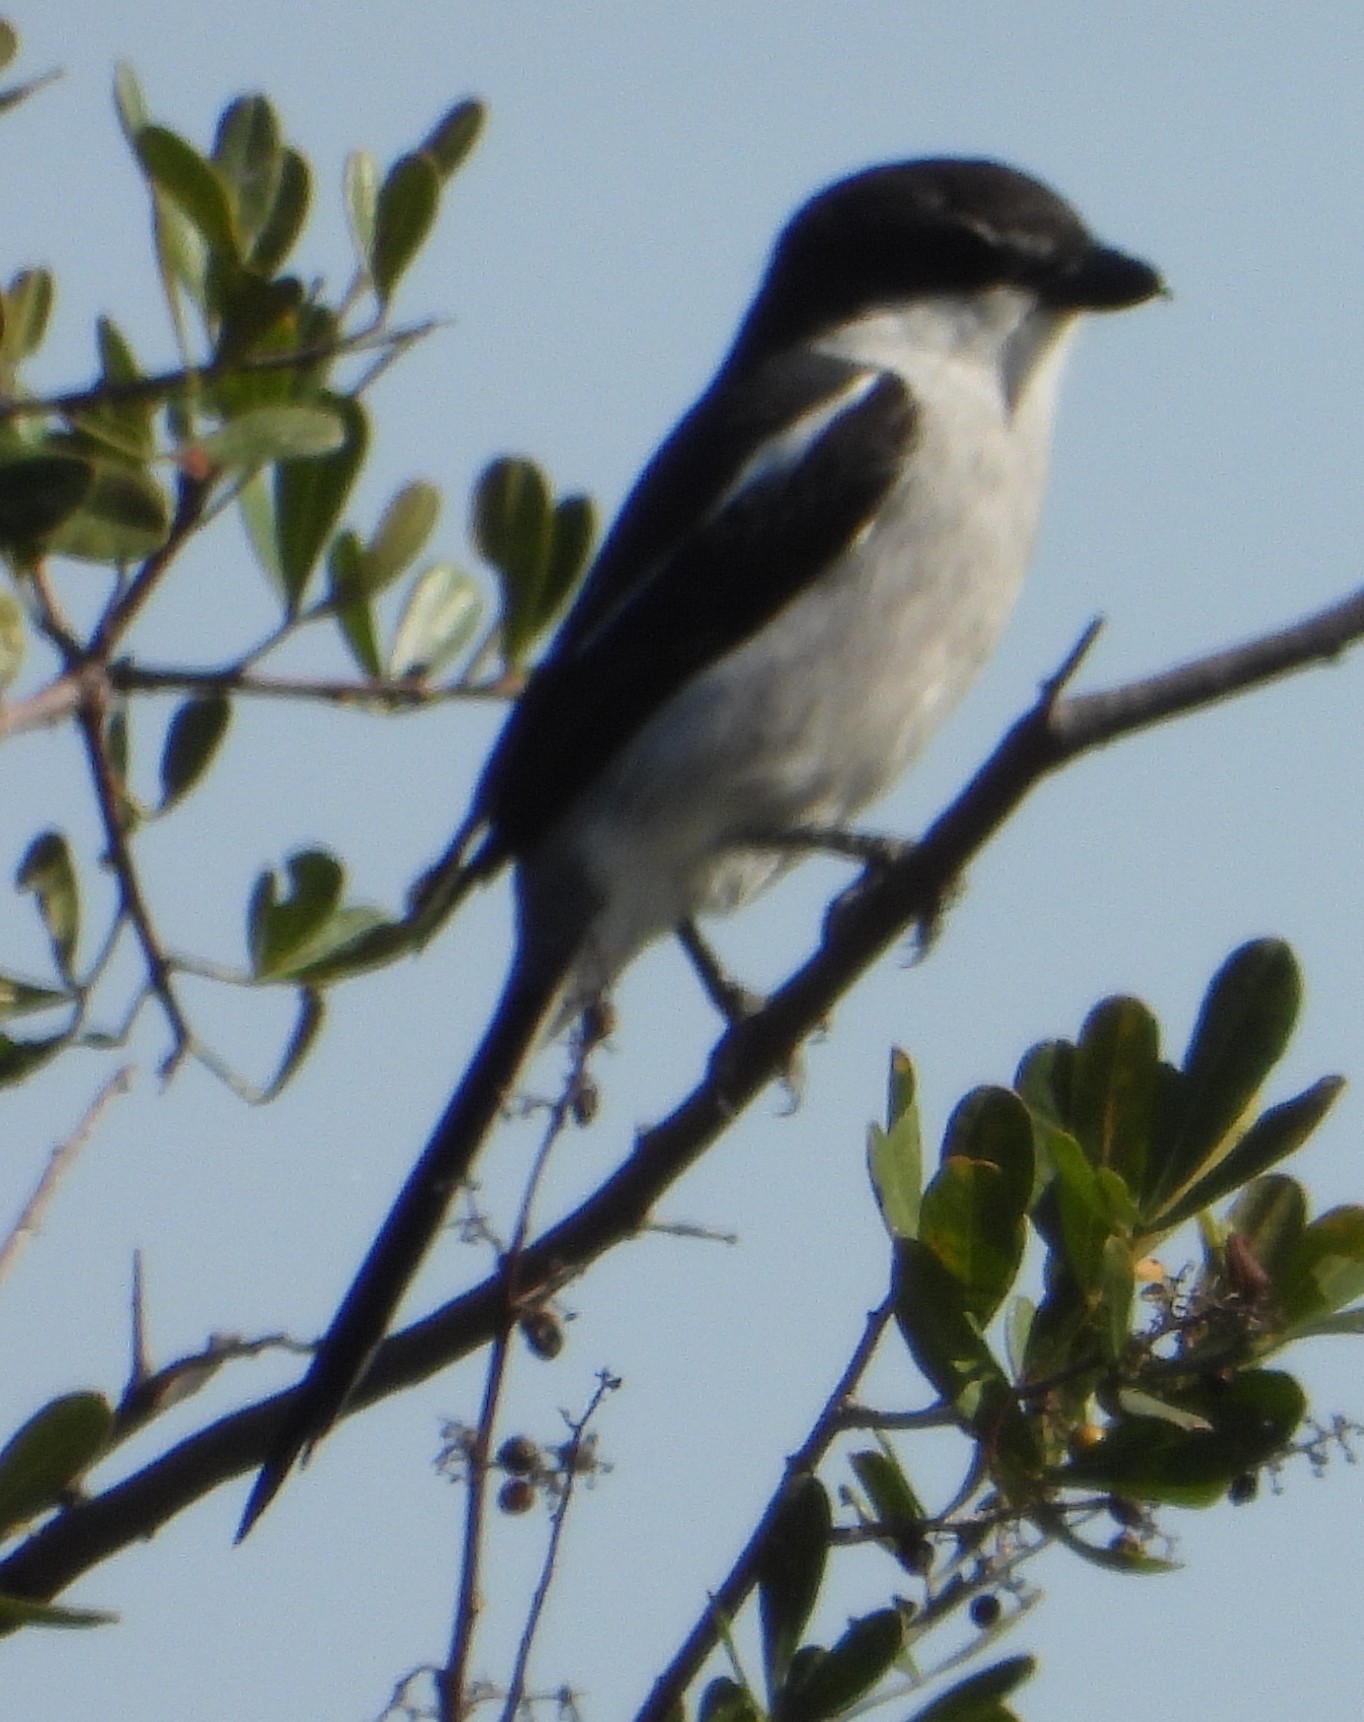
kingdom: Animalia
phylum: Chordata
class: Aves
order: Passeriformes
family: Laniidae
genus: Lanius
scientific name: Lanius collaris
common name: Southern fiscal
